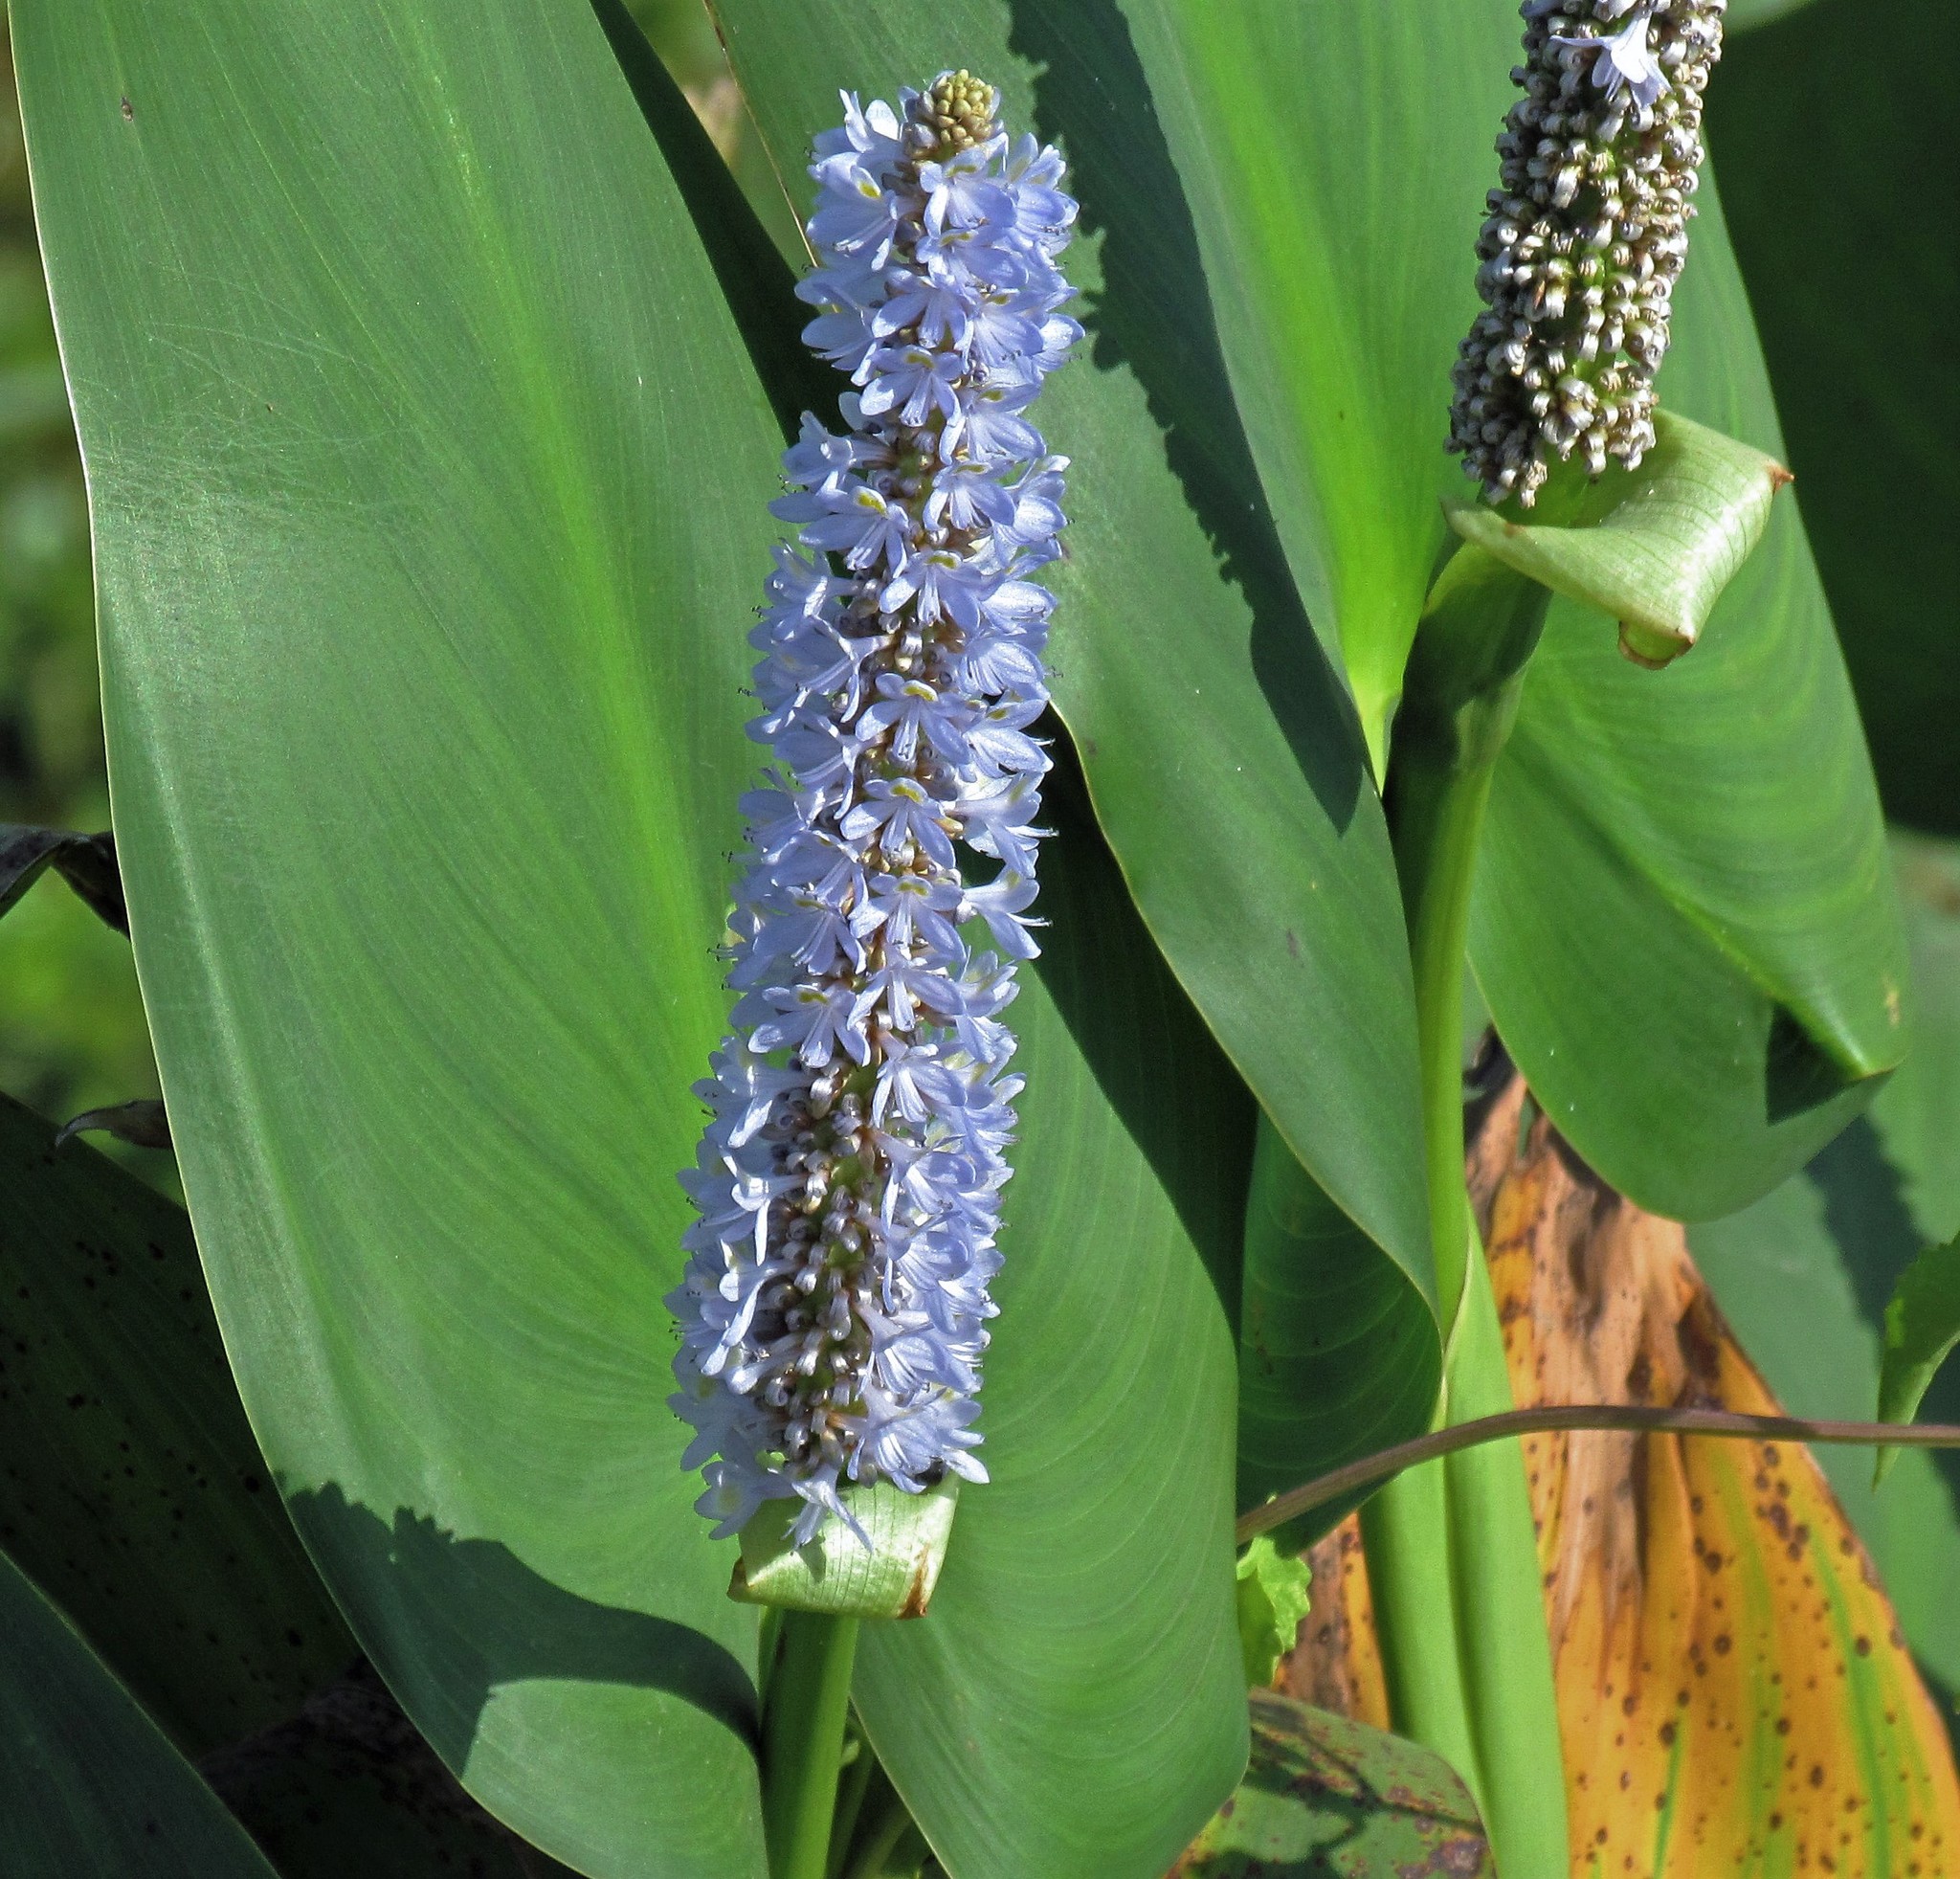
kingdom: Plantae
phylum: Tracheophyta
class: Liliopsida
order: Commelinales
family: Pontederiaceae
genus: Pontederia
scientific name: Pontederia cordata
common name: Pickerelweed
